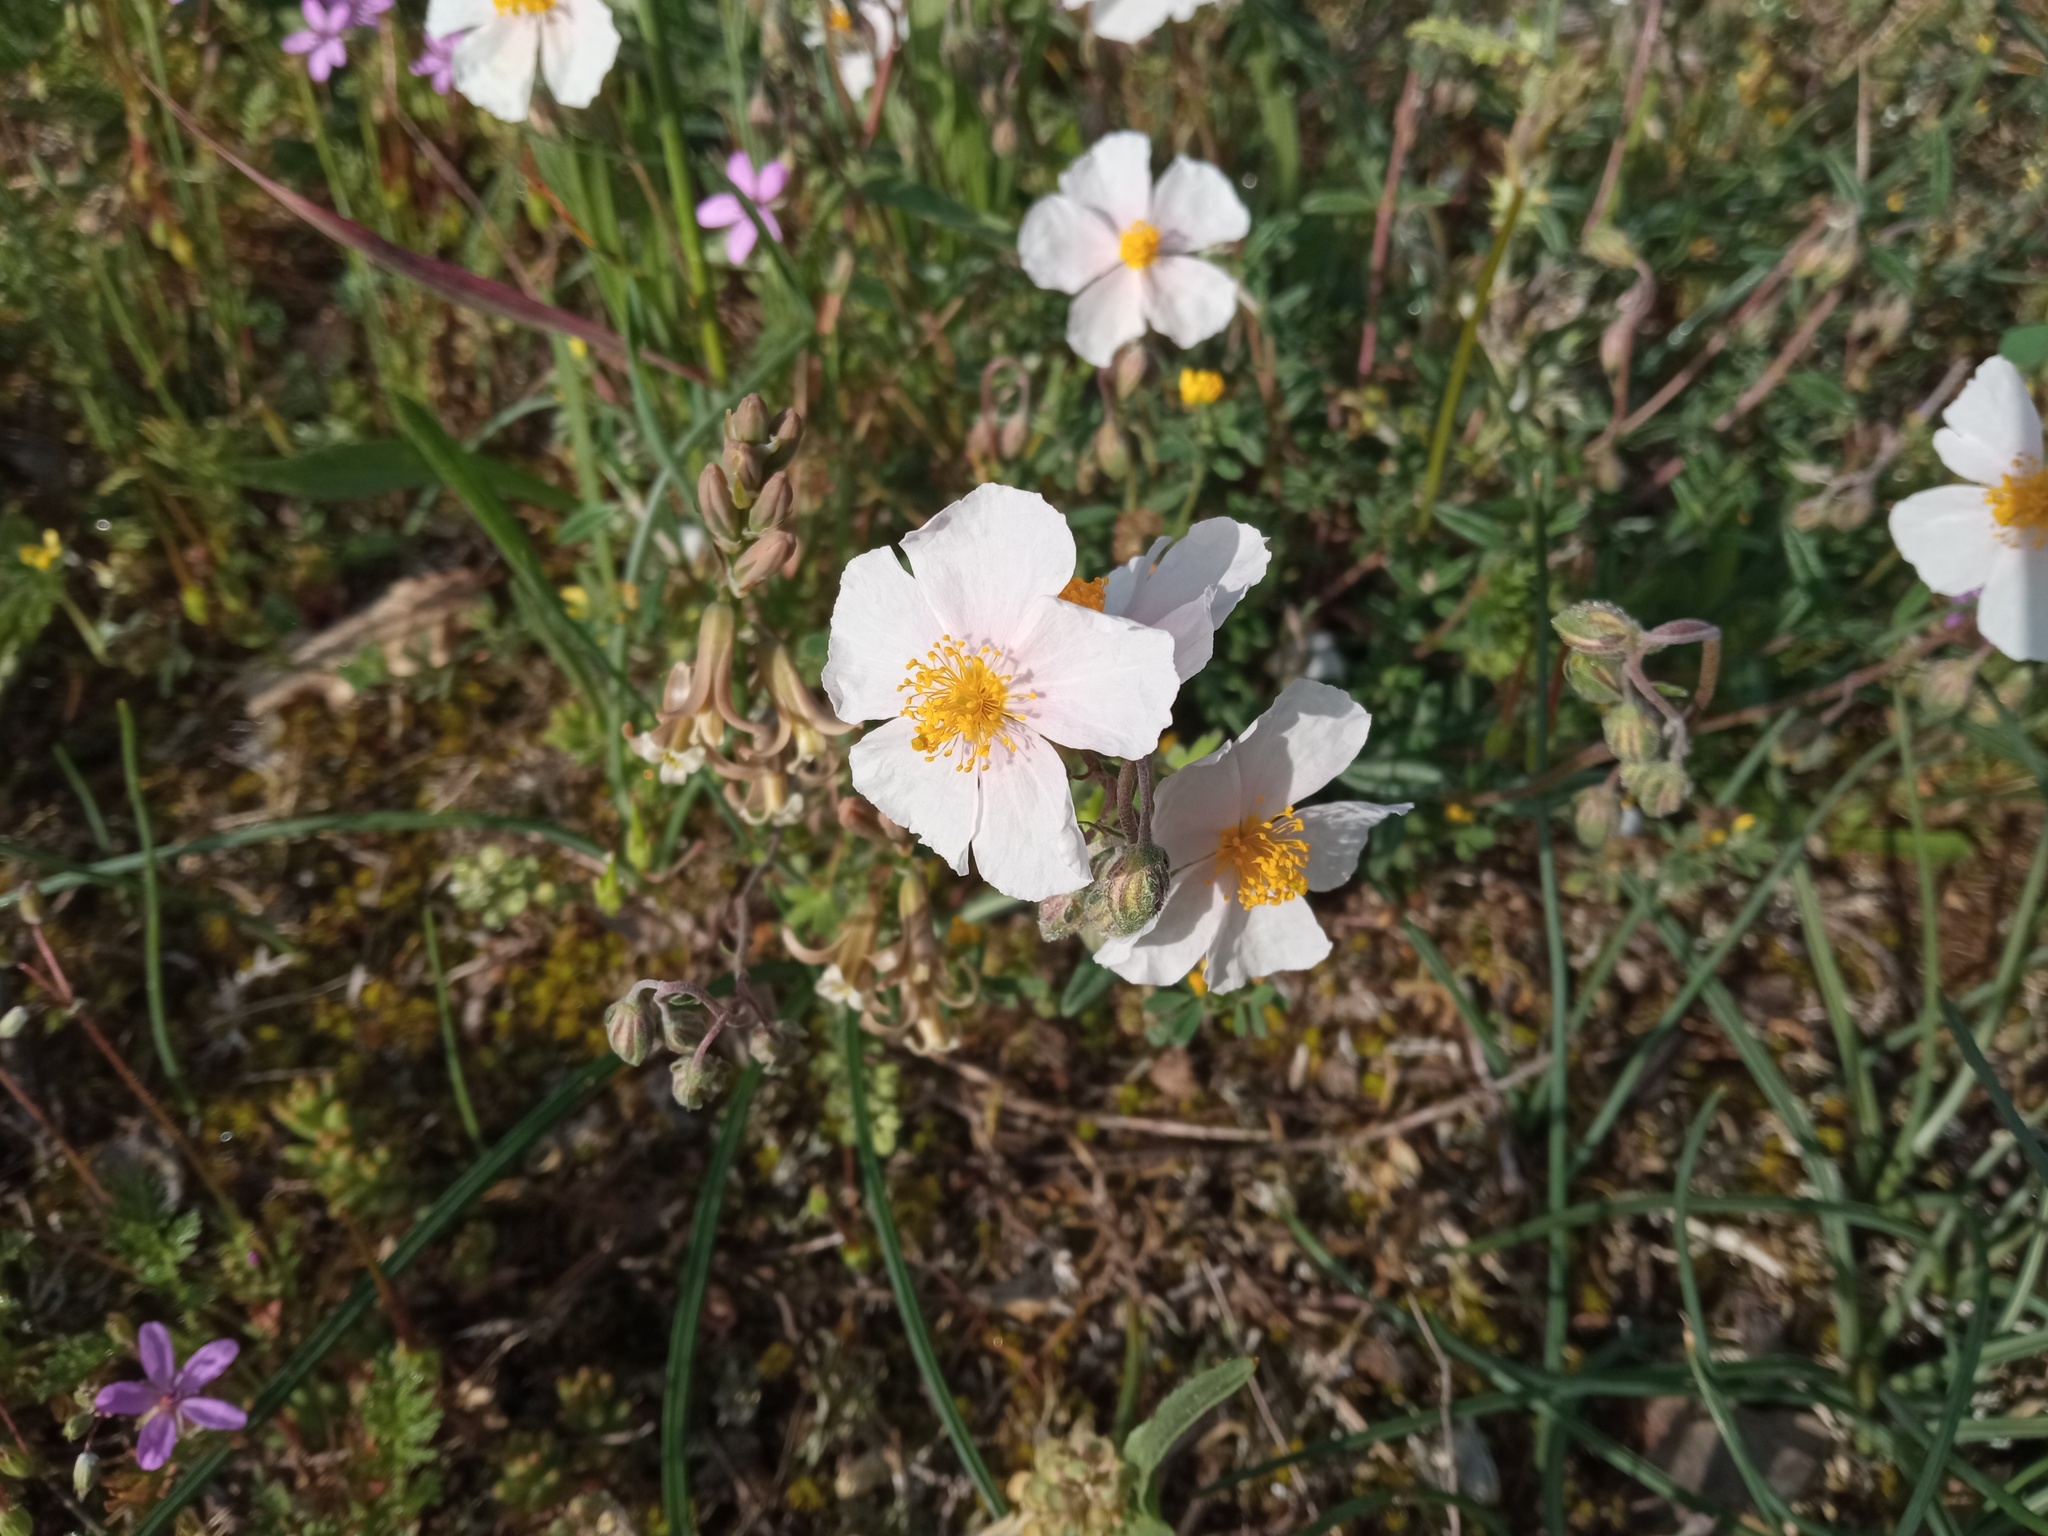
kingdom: Plantae
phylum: Tracheophyta
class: Magnoliopsida
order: Malvales
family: Cistaceae
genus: Helianthemum
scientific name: Helianthemum apenninum
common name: White rock-rose
